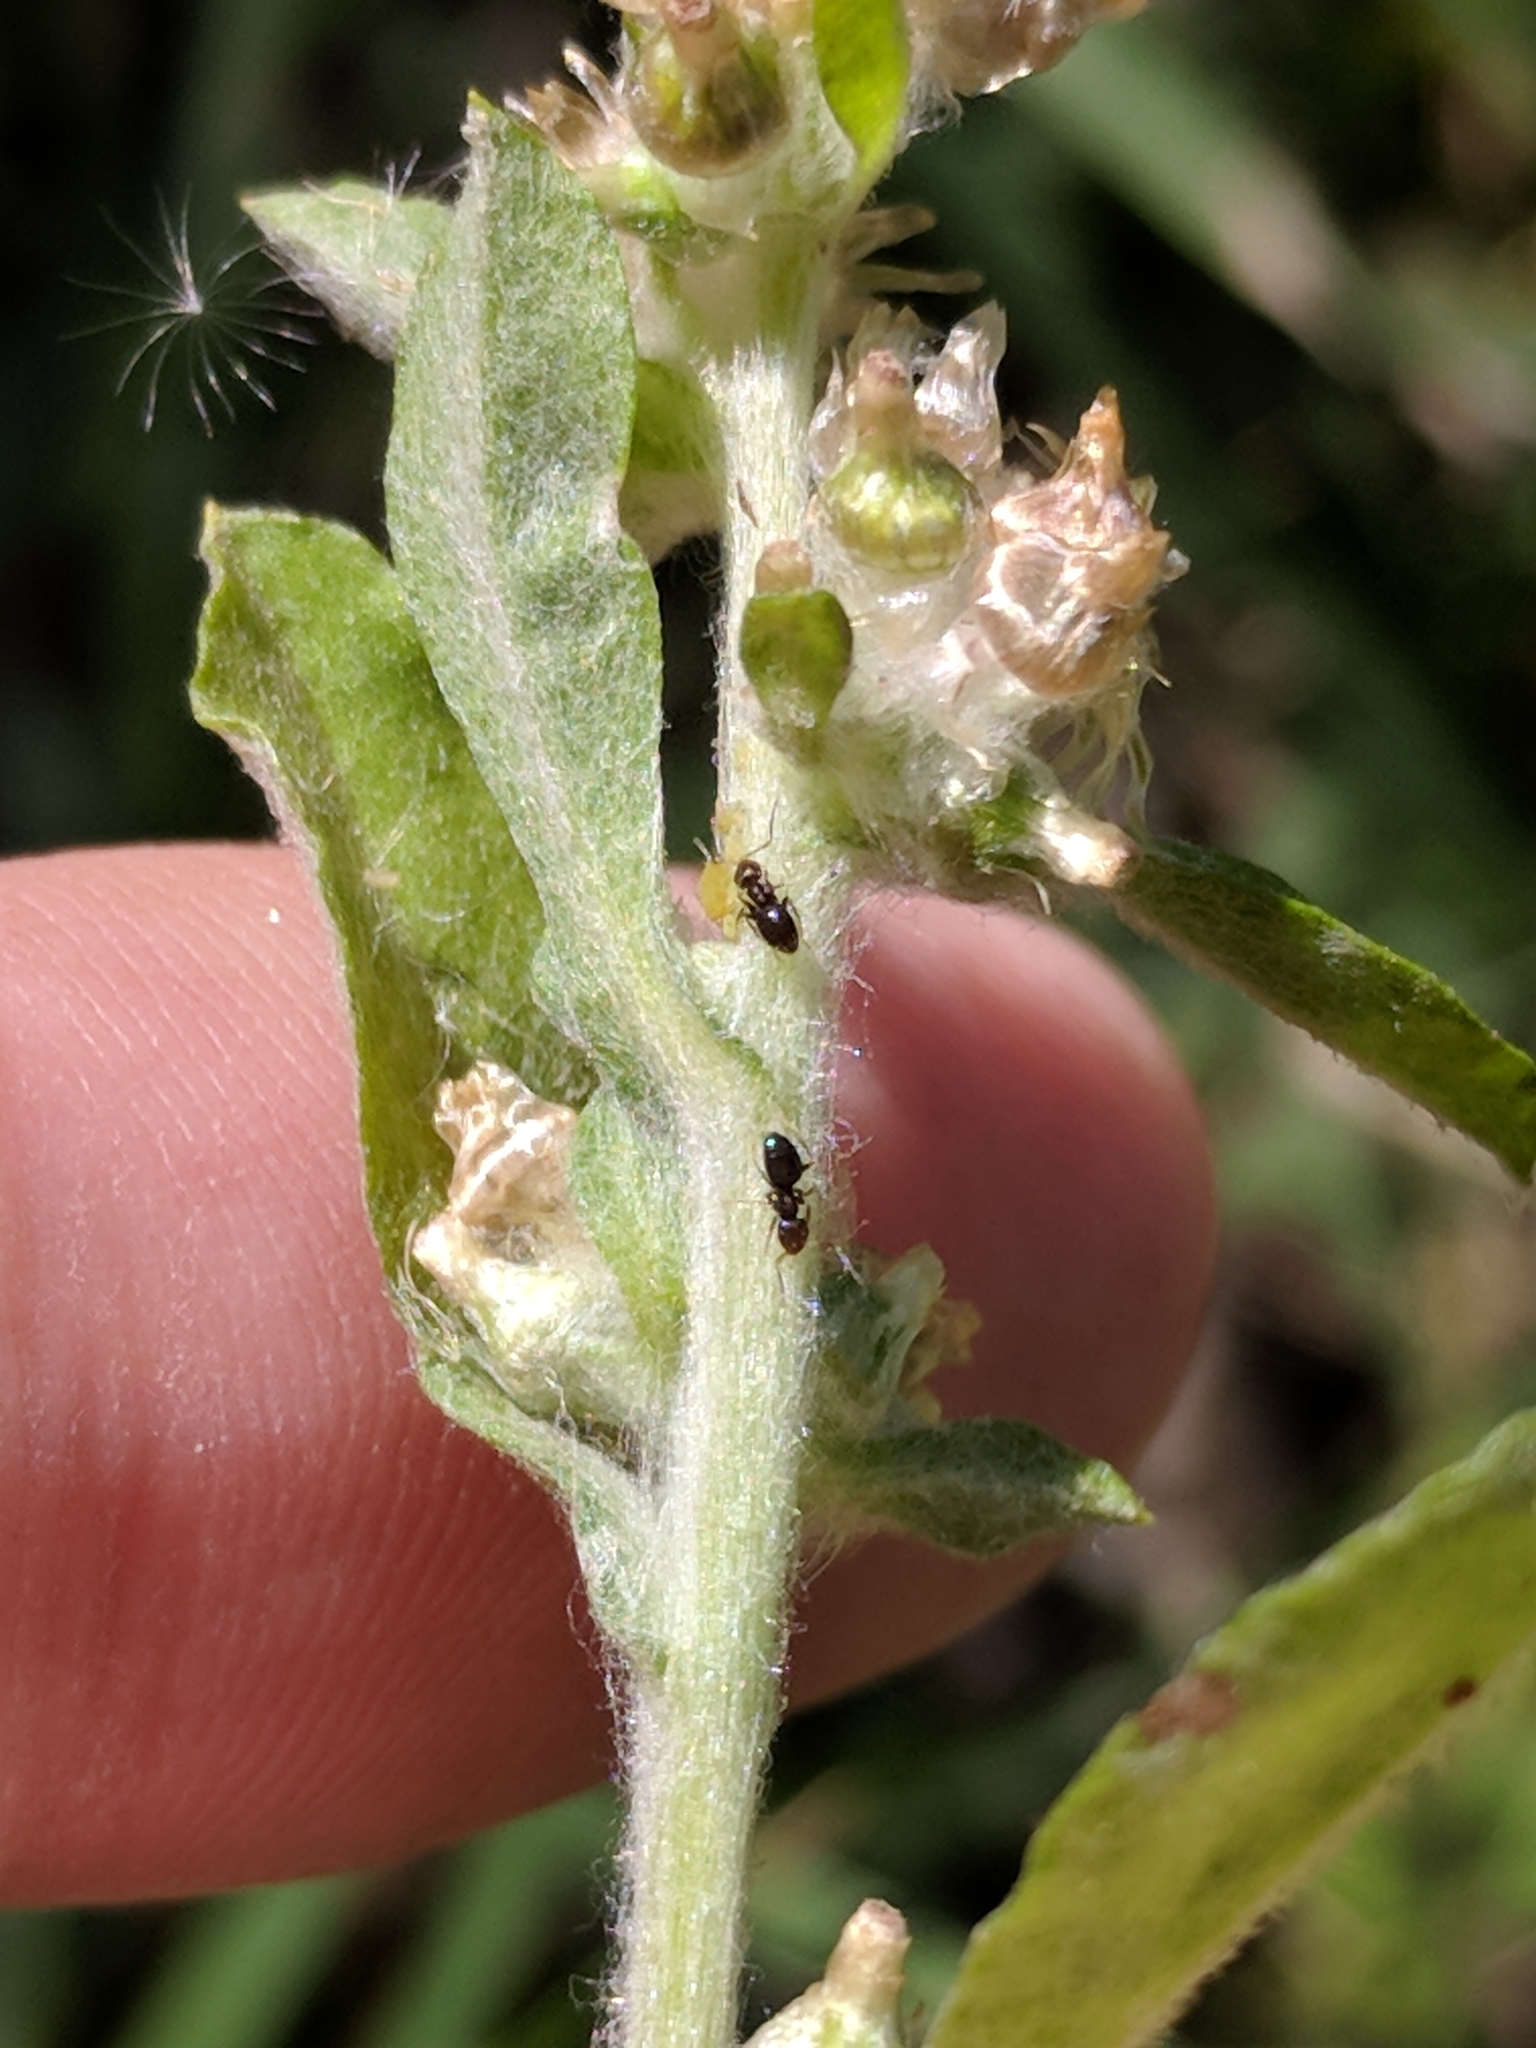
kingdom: Animalia
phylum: Arthropoda
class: Insecta
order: Hymenoptera
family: Formicidae
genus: Brachymyrmex
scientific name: Brachymyrmex patagonicus
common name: Dark rover ant
